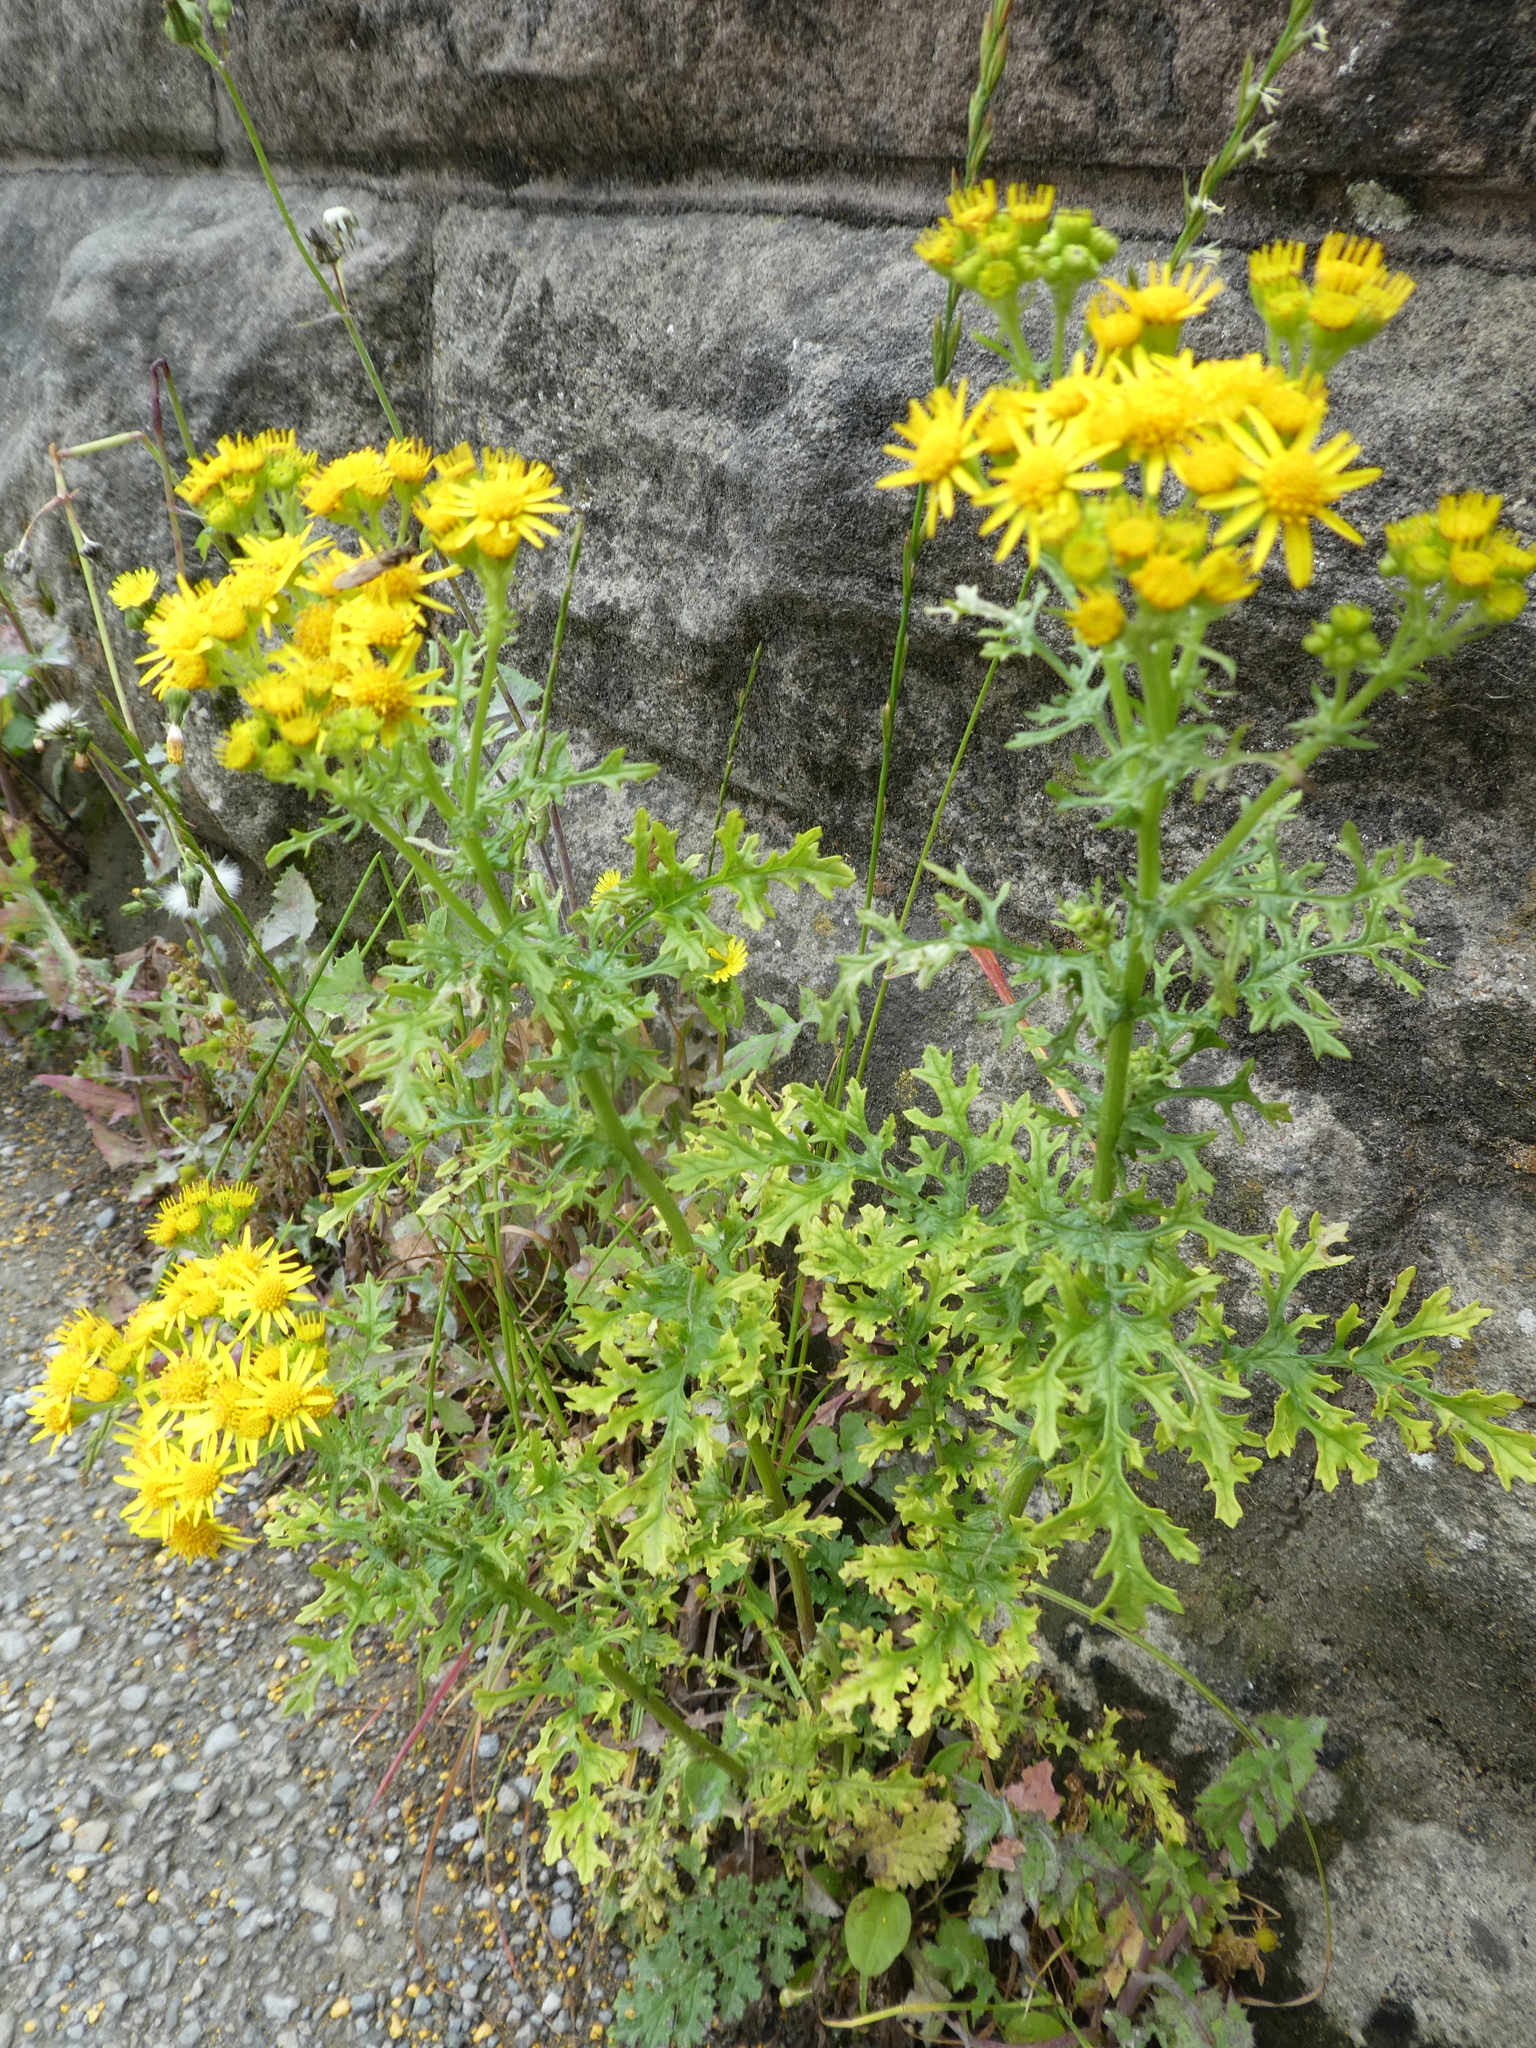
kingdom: Plantae
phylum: Tracheophyta
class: Magnoliopsida
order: Asterales
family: Asteraceae
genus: Jacobaea
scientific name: Jacobaea vulgaris
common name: Stinking willie
